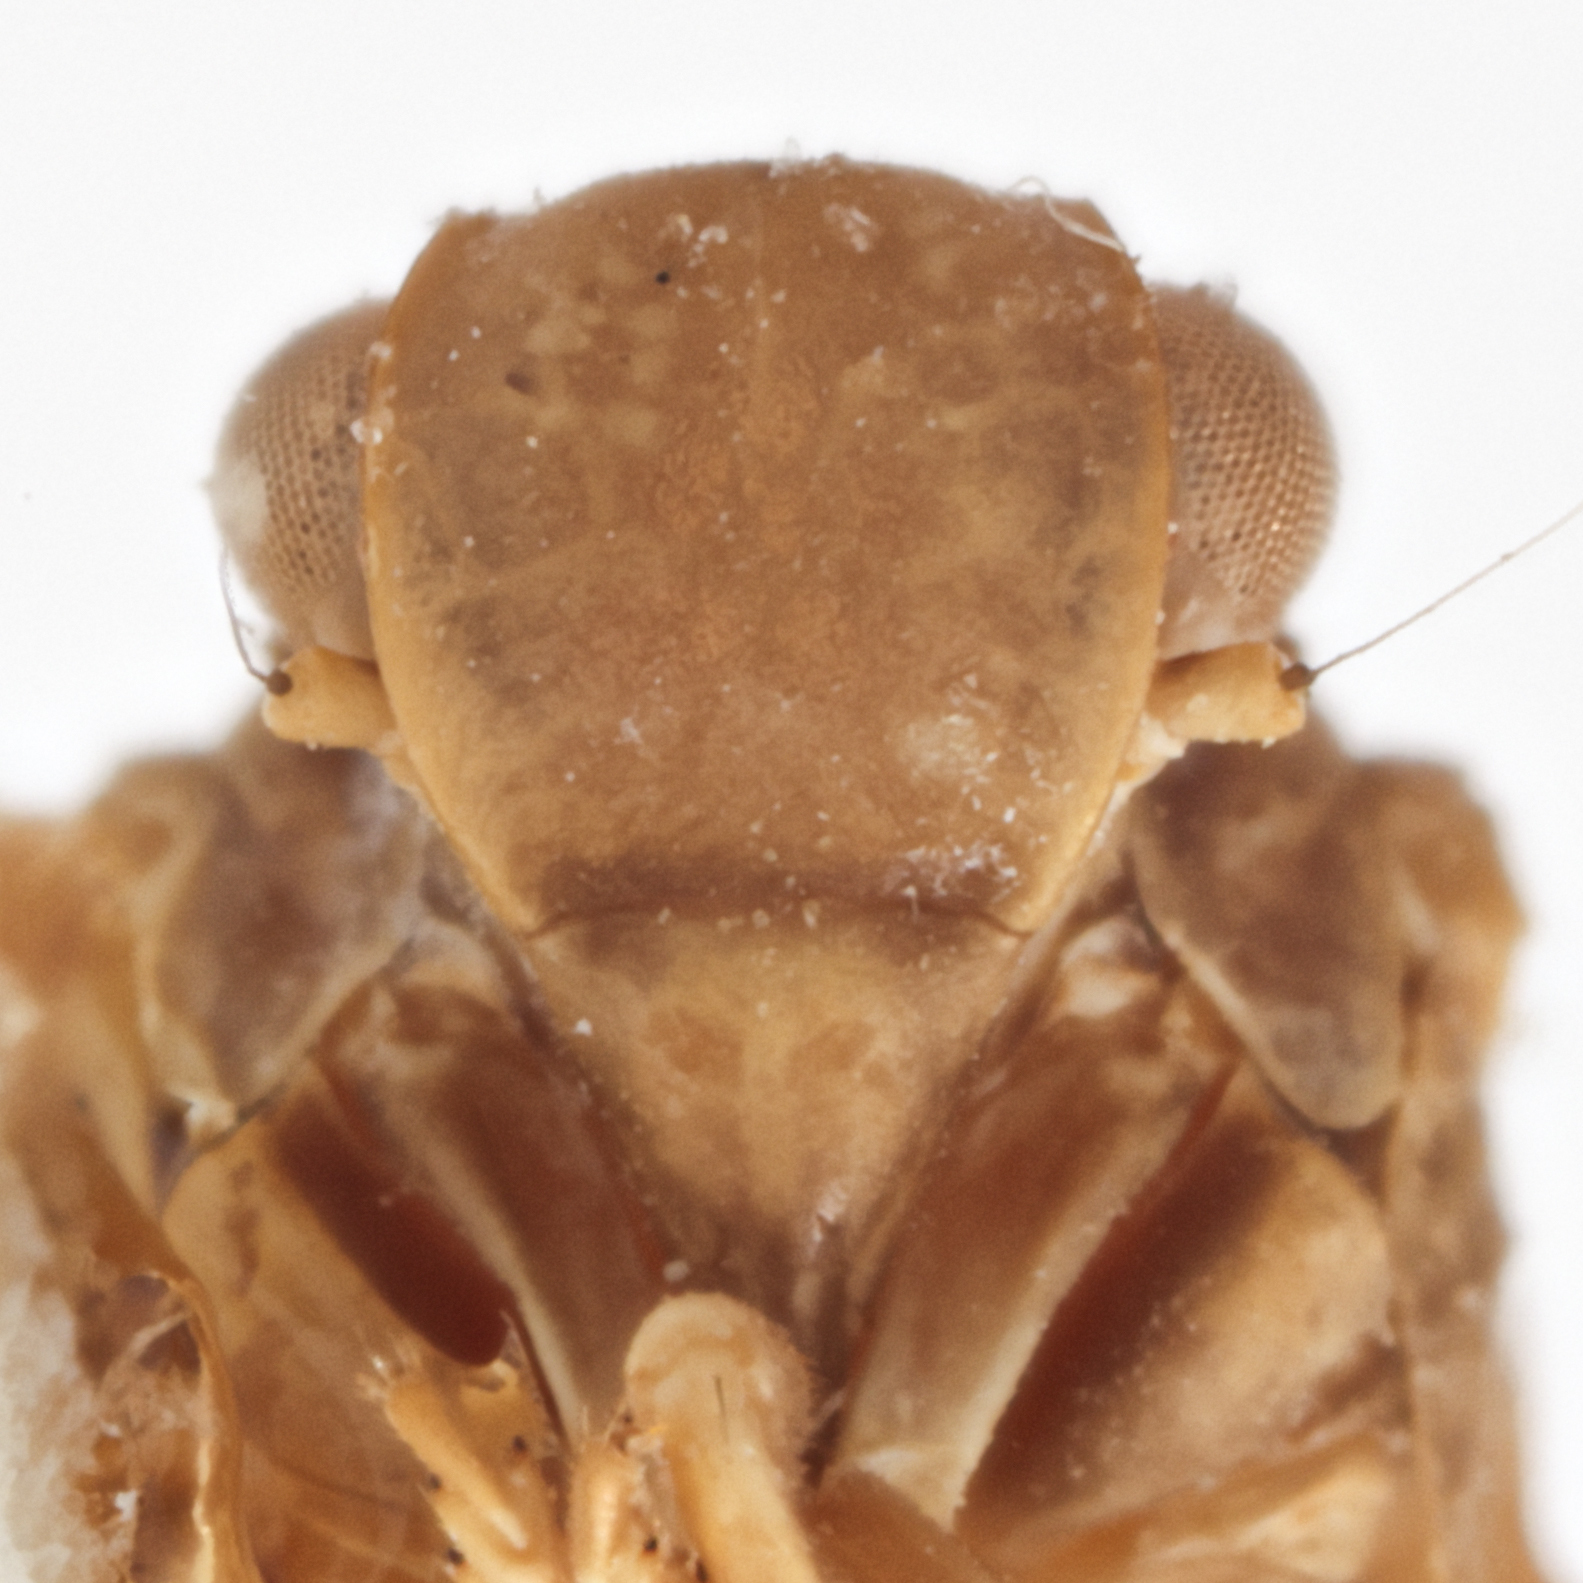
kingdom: Animalia
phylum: Arthropoda
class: Insecta
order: Hemiptera
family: Flatidae
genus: Euhyloptera
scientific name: Euhyloptera priapus
